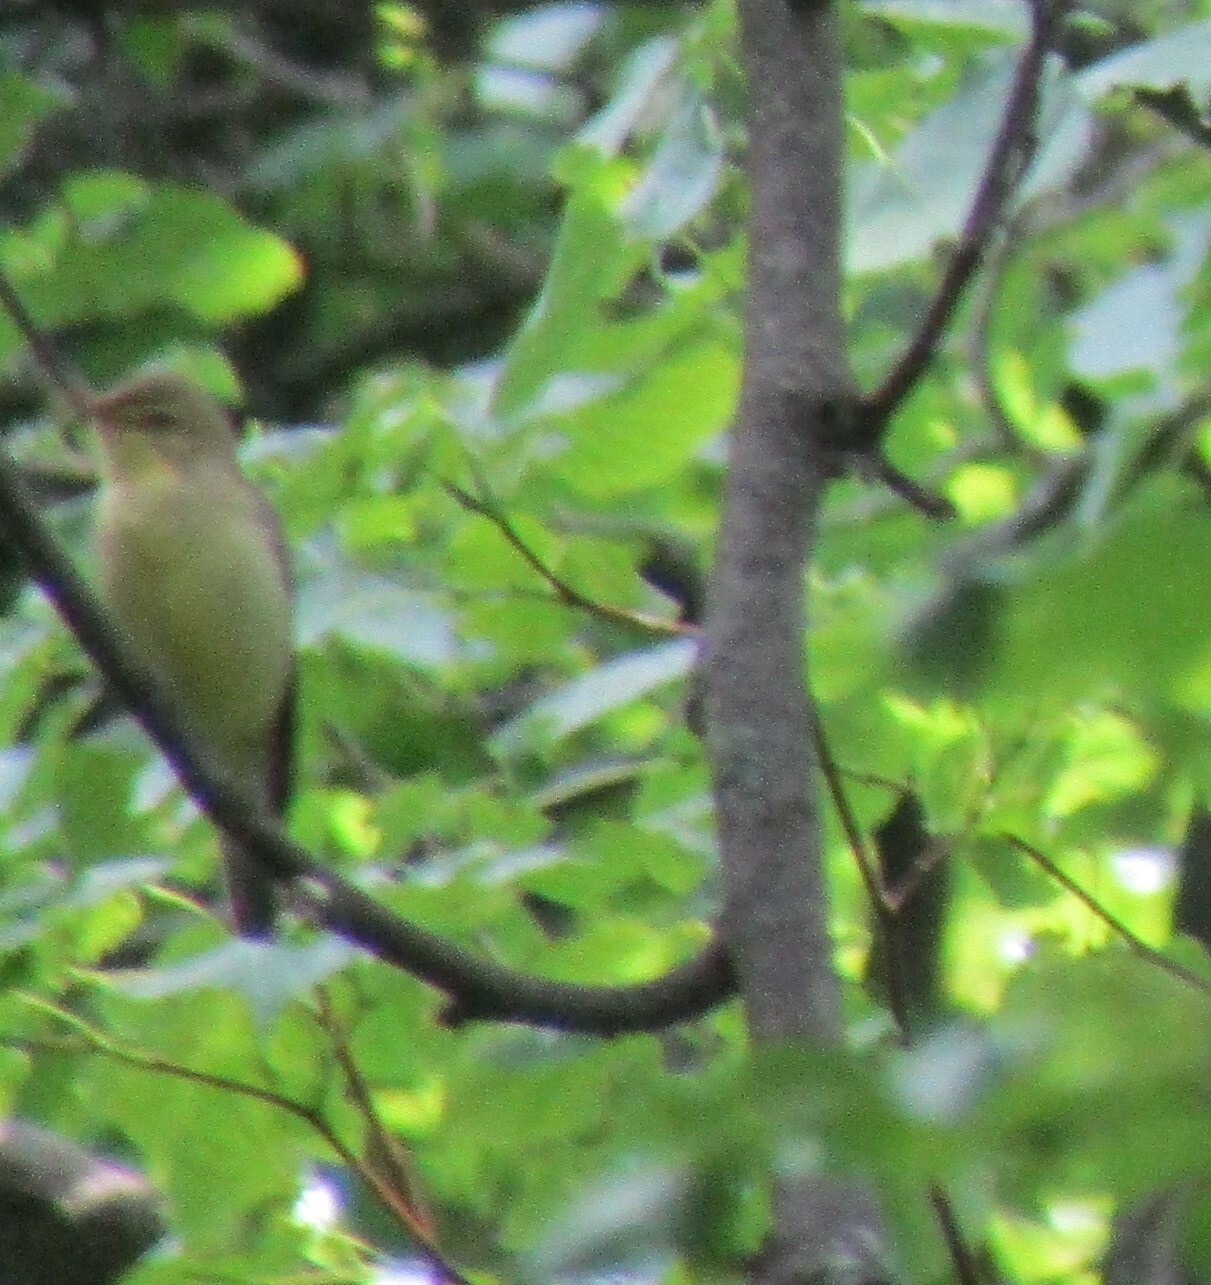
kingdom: Animalia
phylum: Chordata
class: Aves
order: Passeriformes
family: Acrocephalidae
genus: Hippolais
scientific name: Hippolais icterina
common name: Icterine warbler
